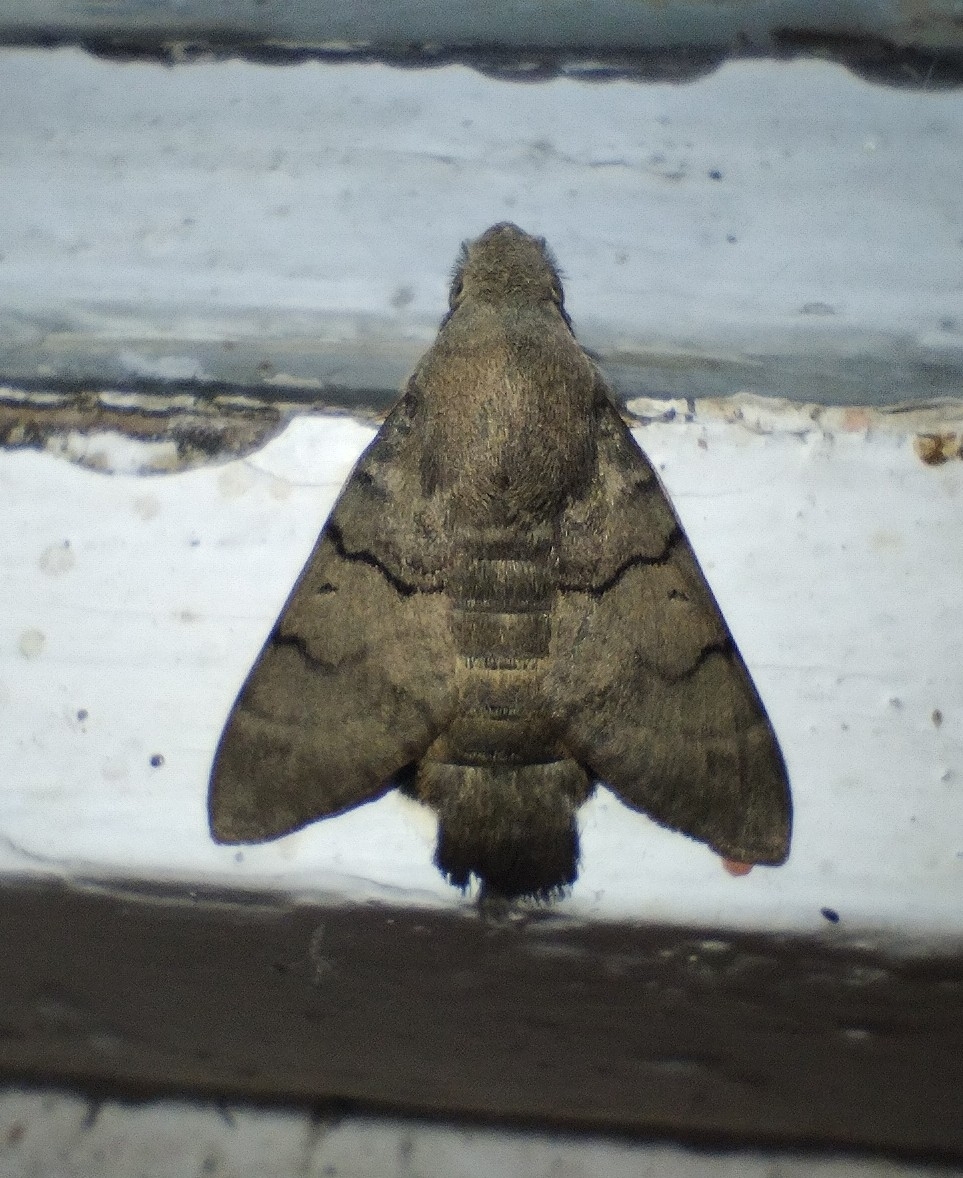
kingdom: Animalia
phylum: Arthropoda
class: Insecta
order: Lepidoptera
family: Sphingidae
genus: Macroglossum
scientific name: Macroglossum stellatarum
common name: Humming-bird hawk-moth
